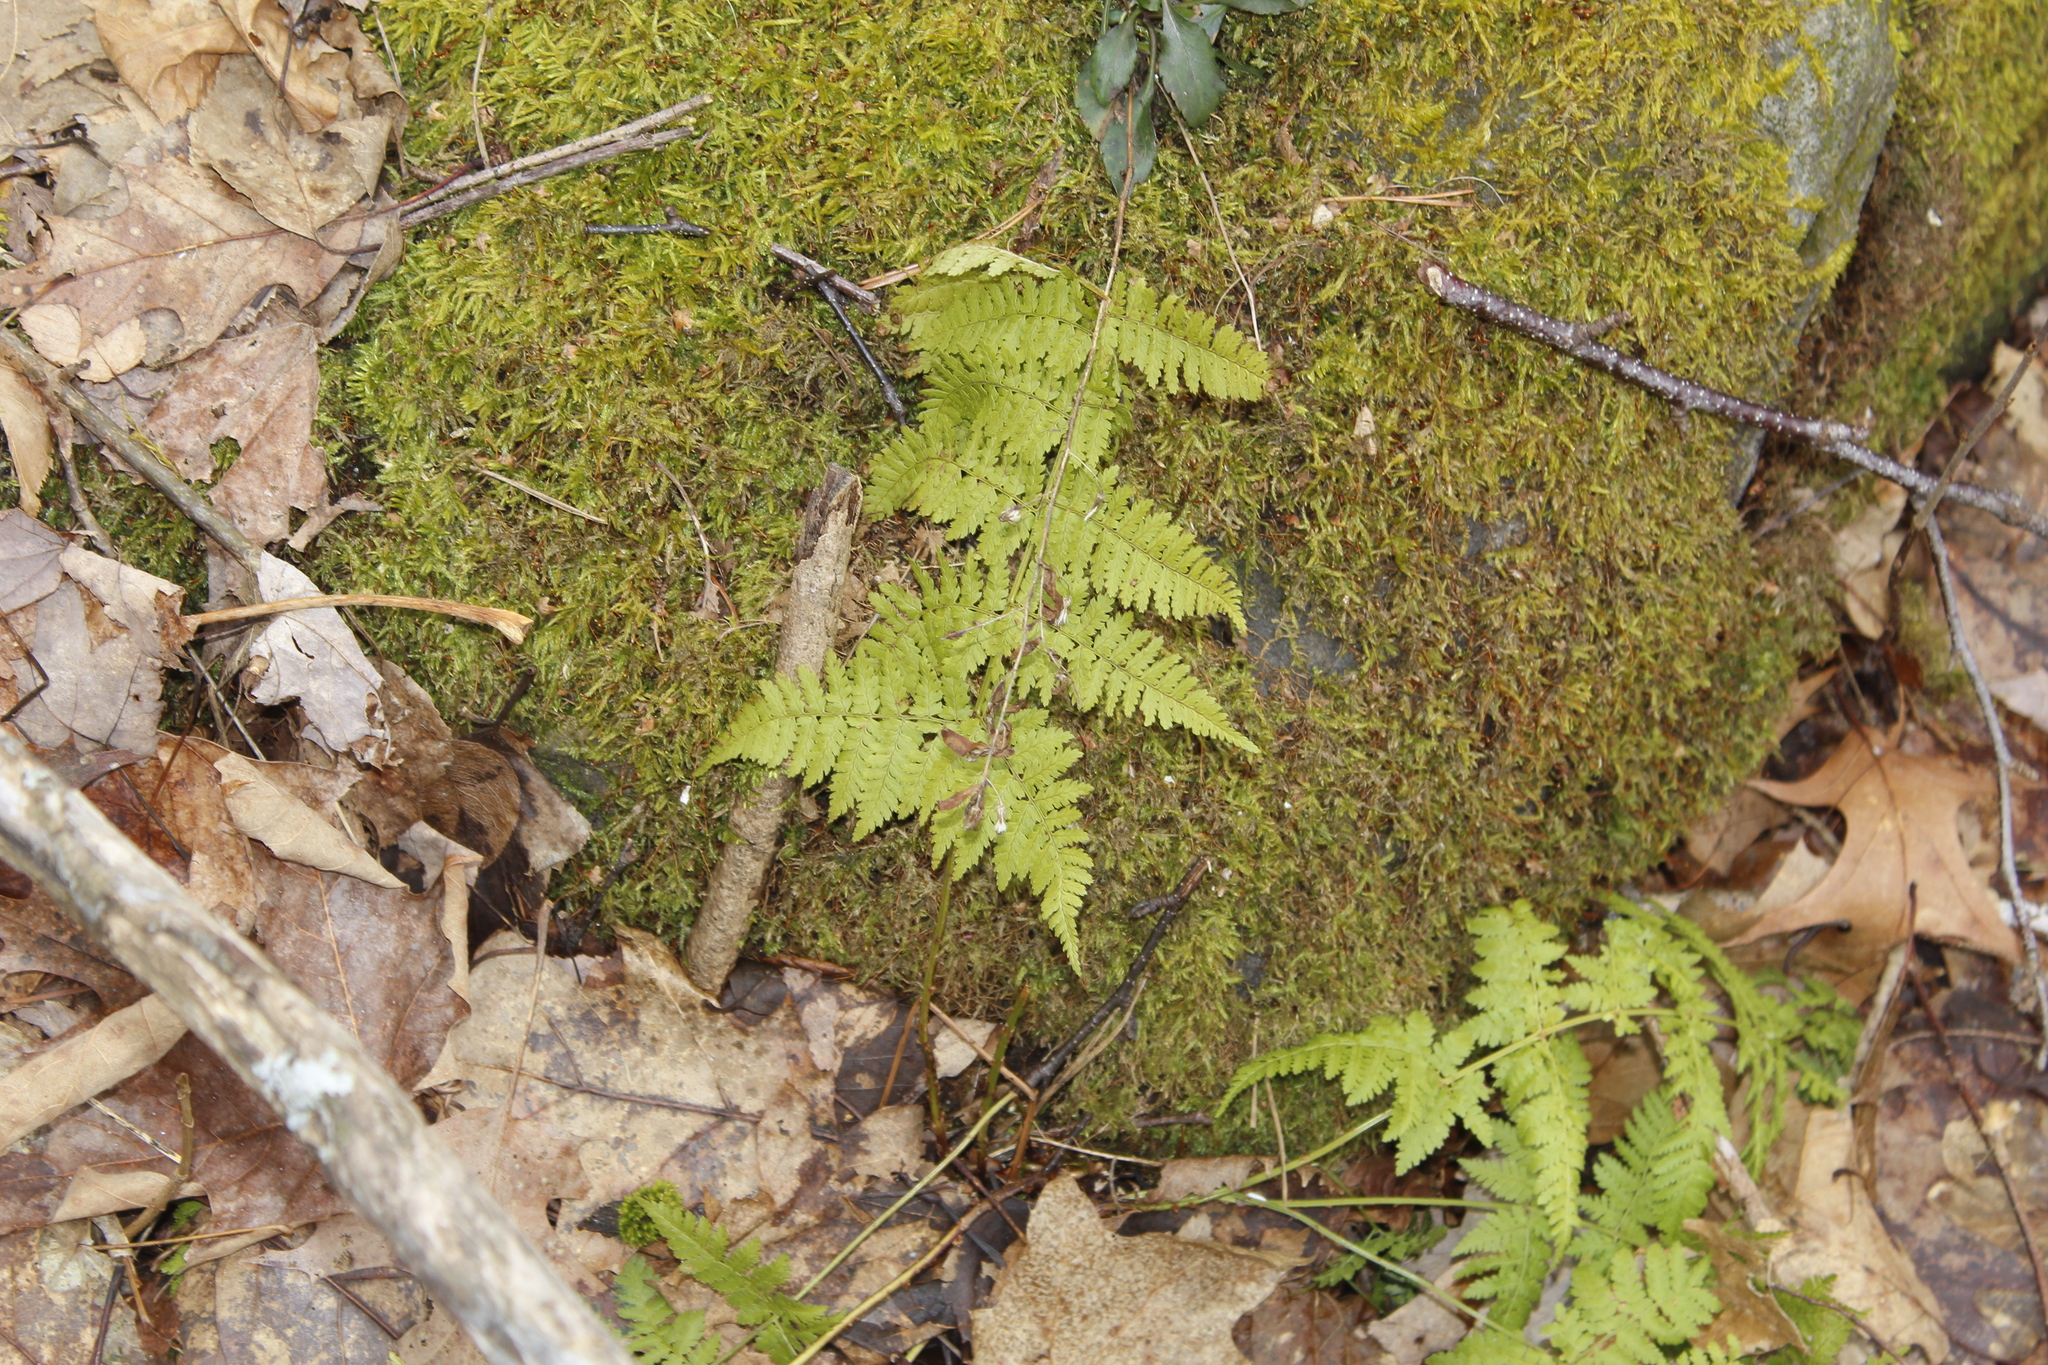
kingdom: Plantae
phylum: Tracheophyta
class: Polypodiopsida
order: Polypodiales
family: Dryopteridaceae
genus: Dryopteris
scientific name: Dryopteris intermedia
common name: Evergreen wood fern
